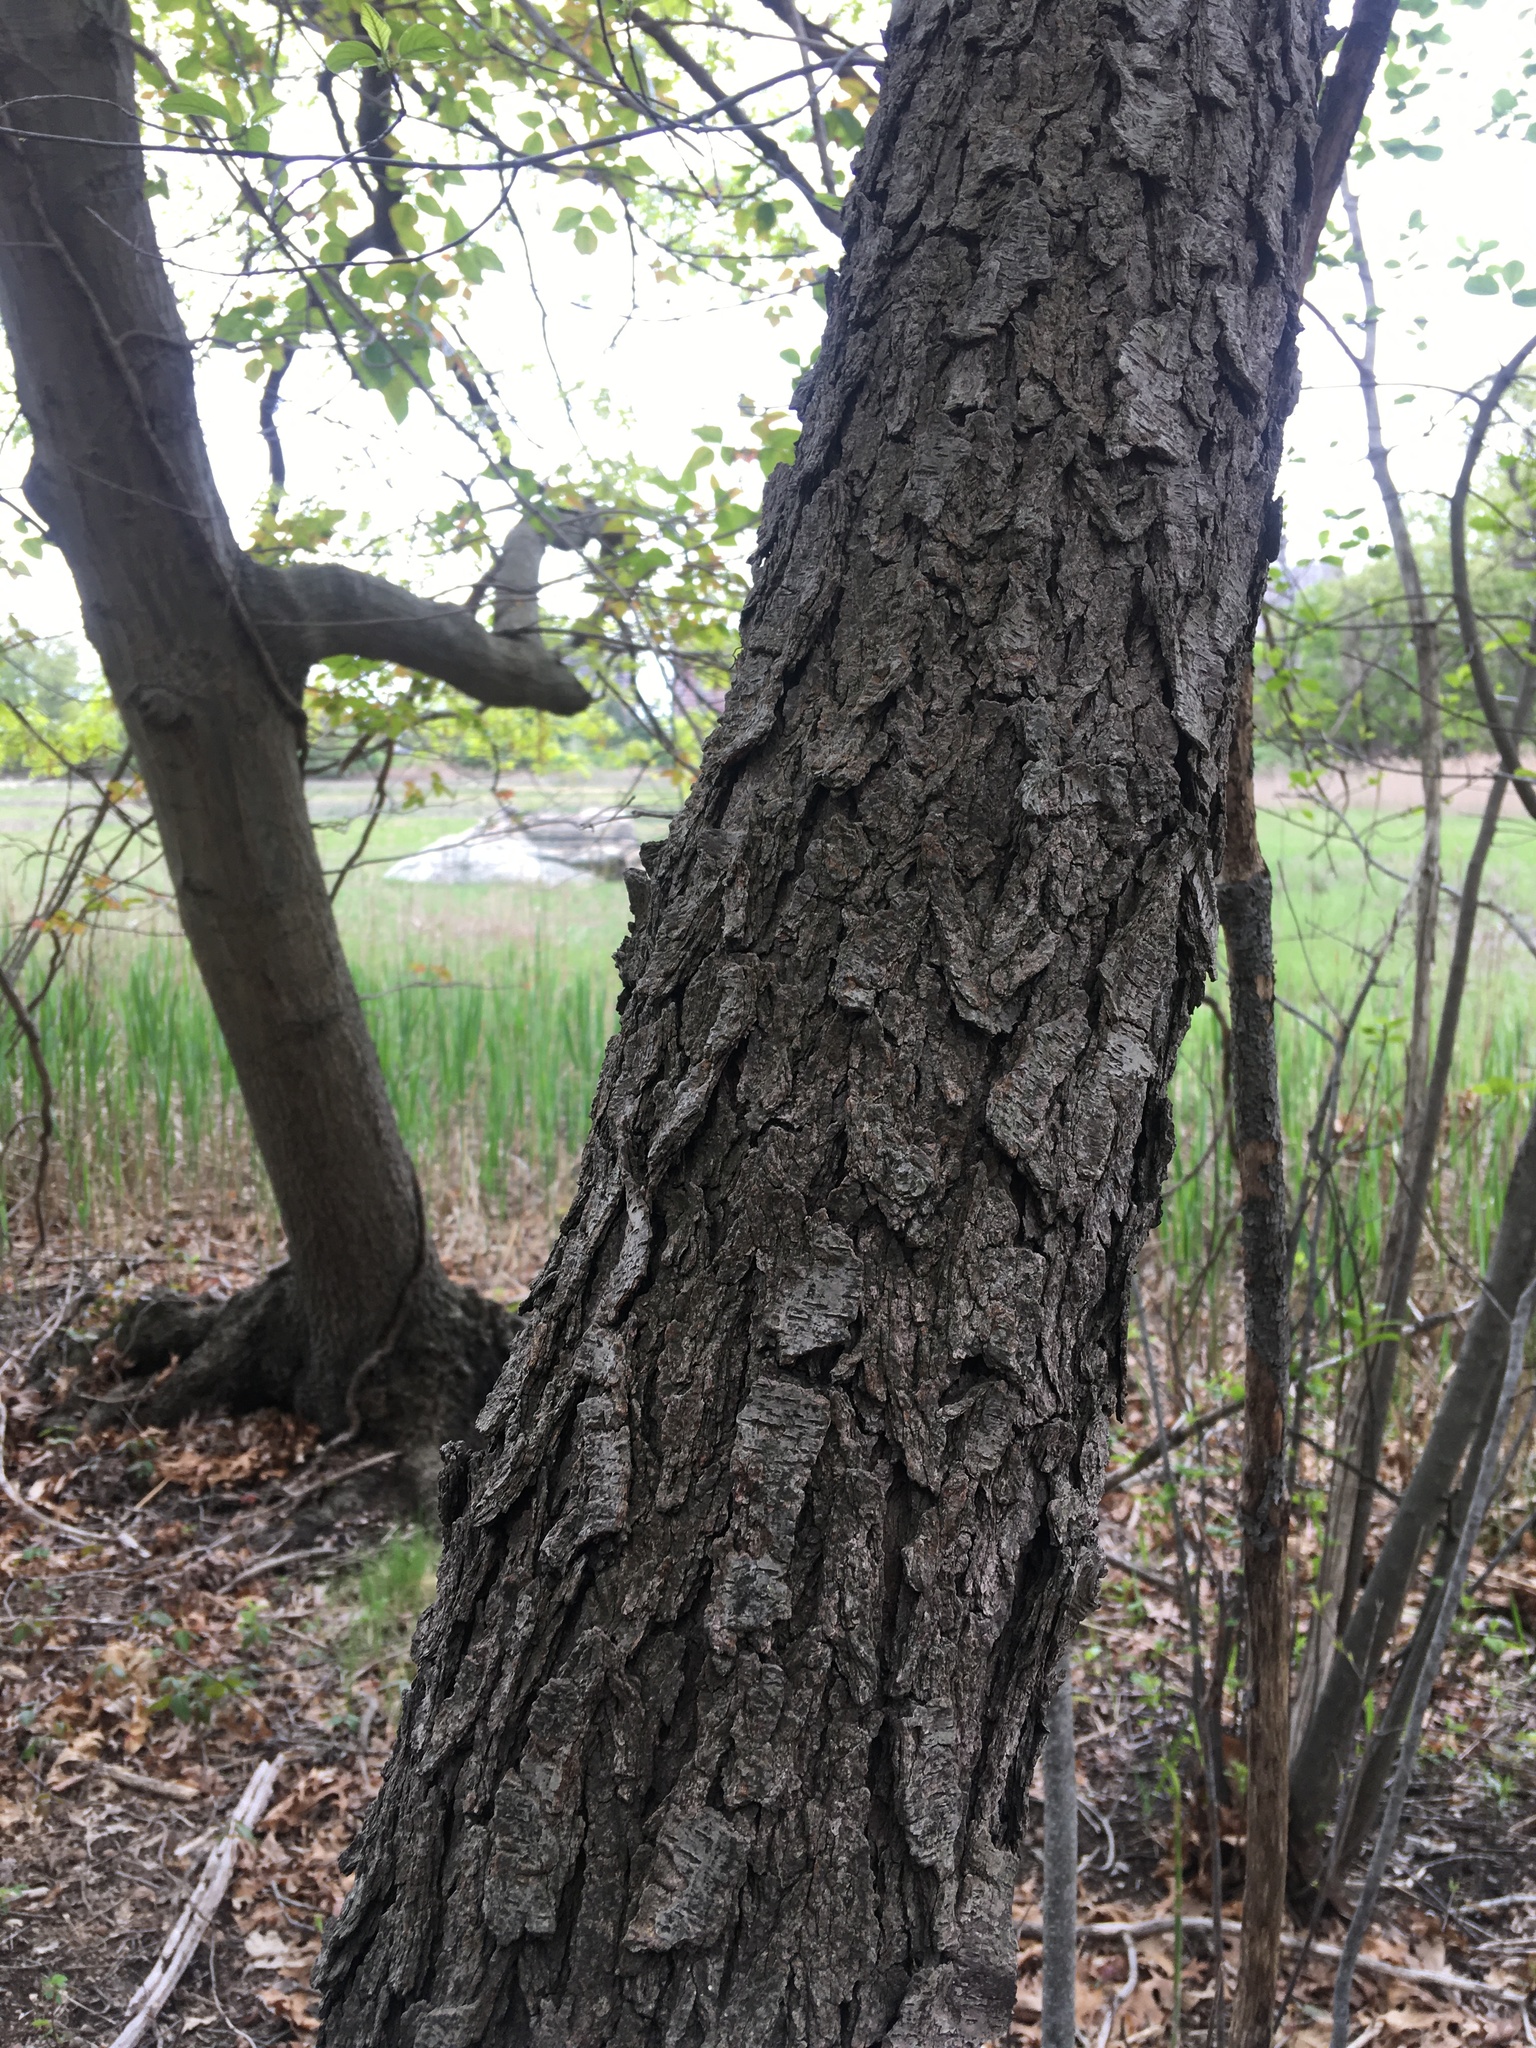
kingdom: Plantae
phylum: Tracheophyta
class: Magnoliopsida
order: Rosales
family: Rosaceae
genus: Prunus
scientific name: Prunus serotina
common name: Black cherry
